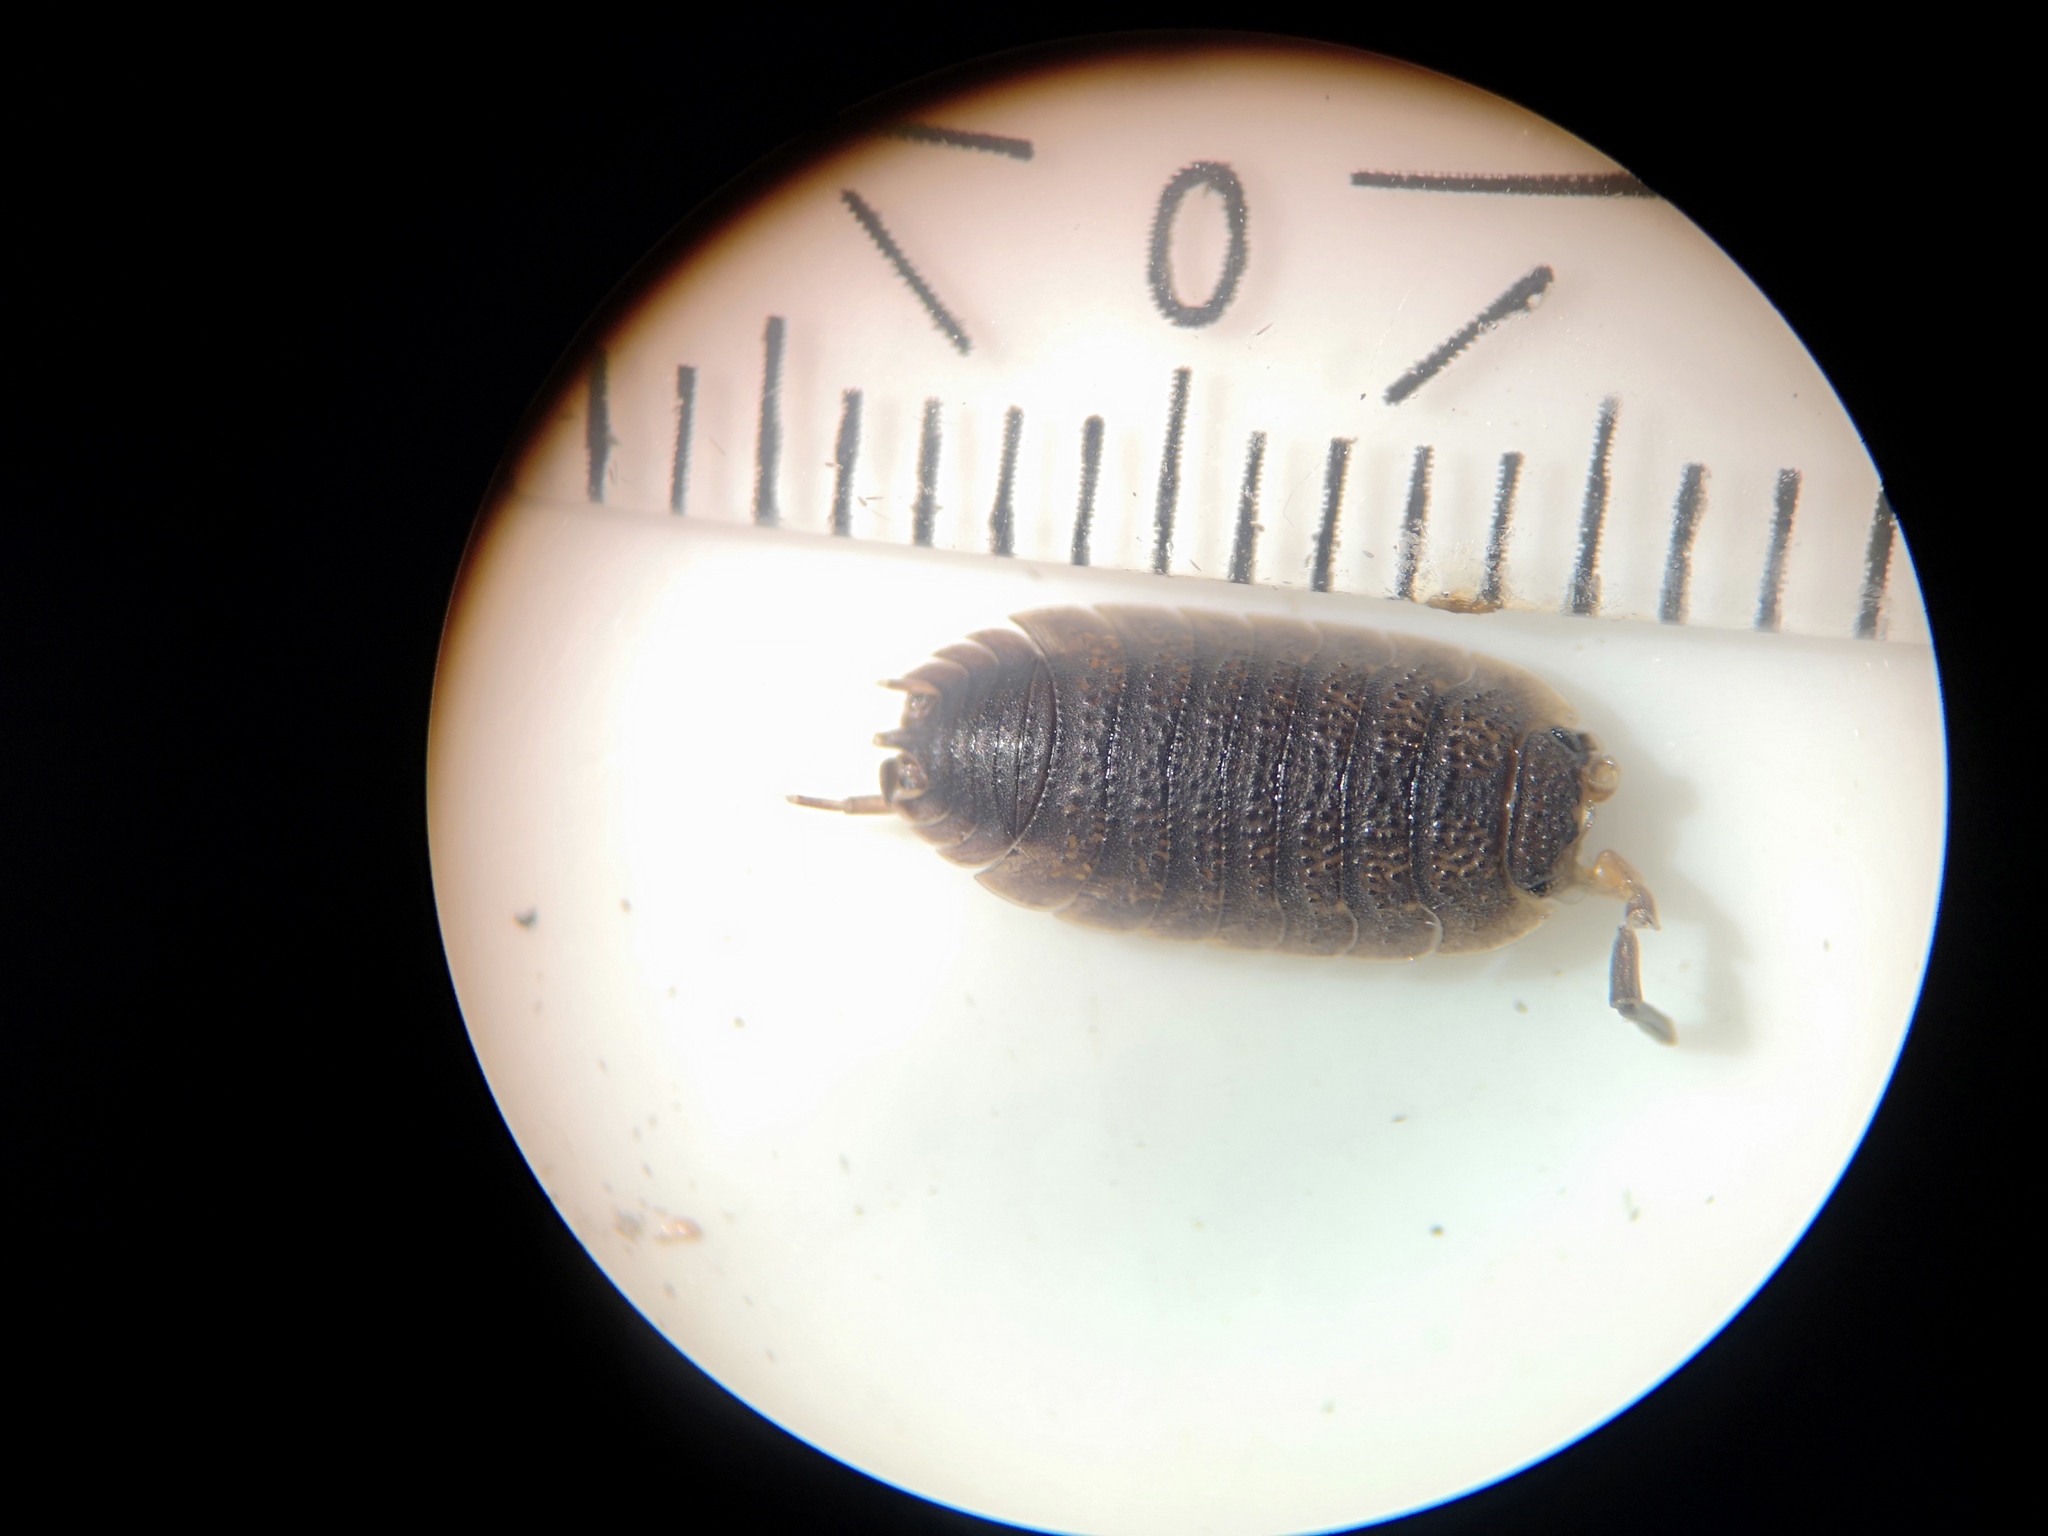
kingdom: Animalia
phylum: Arthropoda
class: Malacostraca
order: Isopoda
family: Porcellionidae
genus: Porcellio
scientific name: Porcellio scaber
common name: Common rough woodlouse
